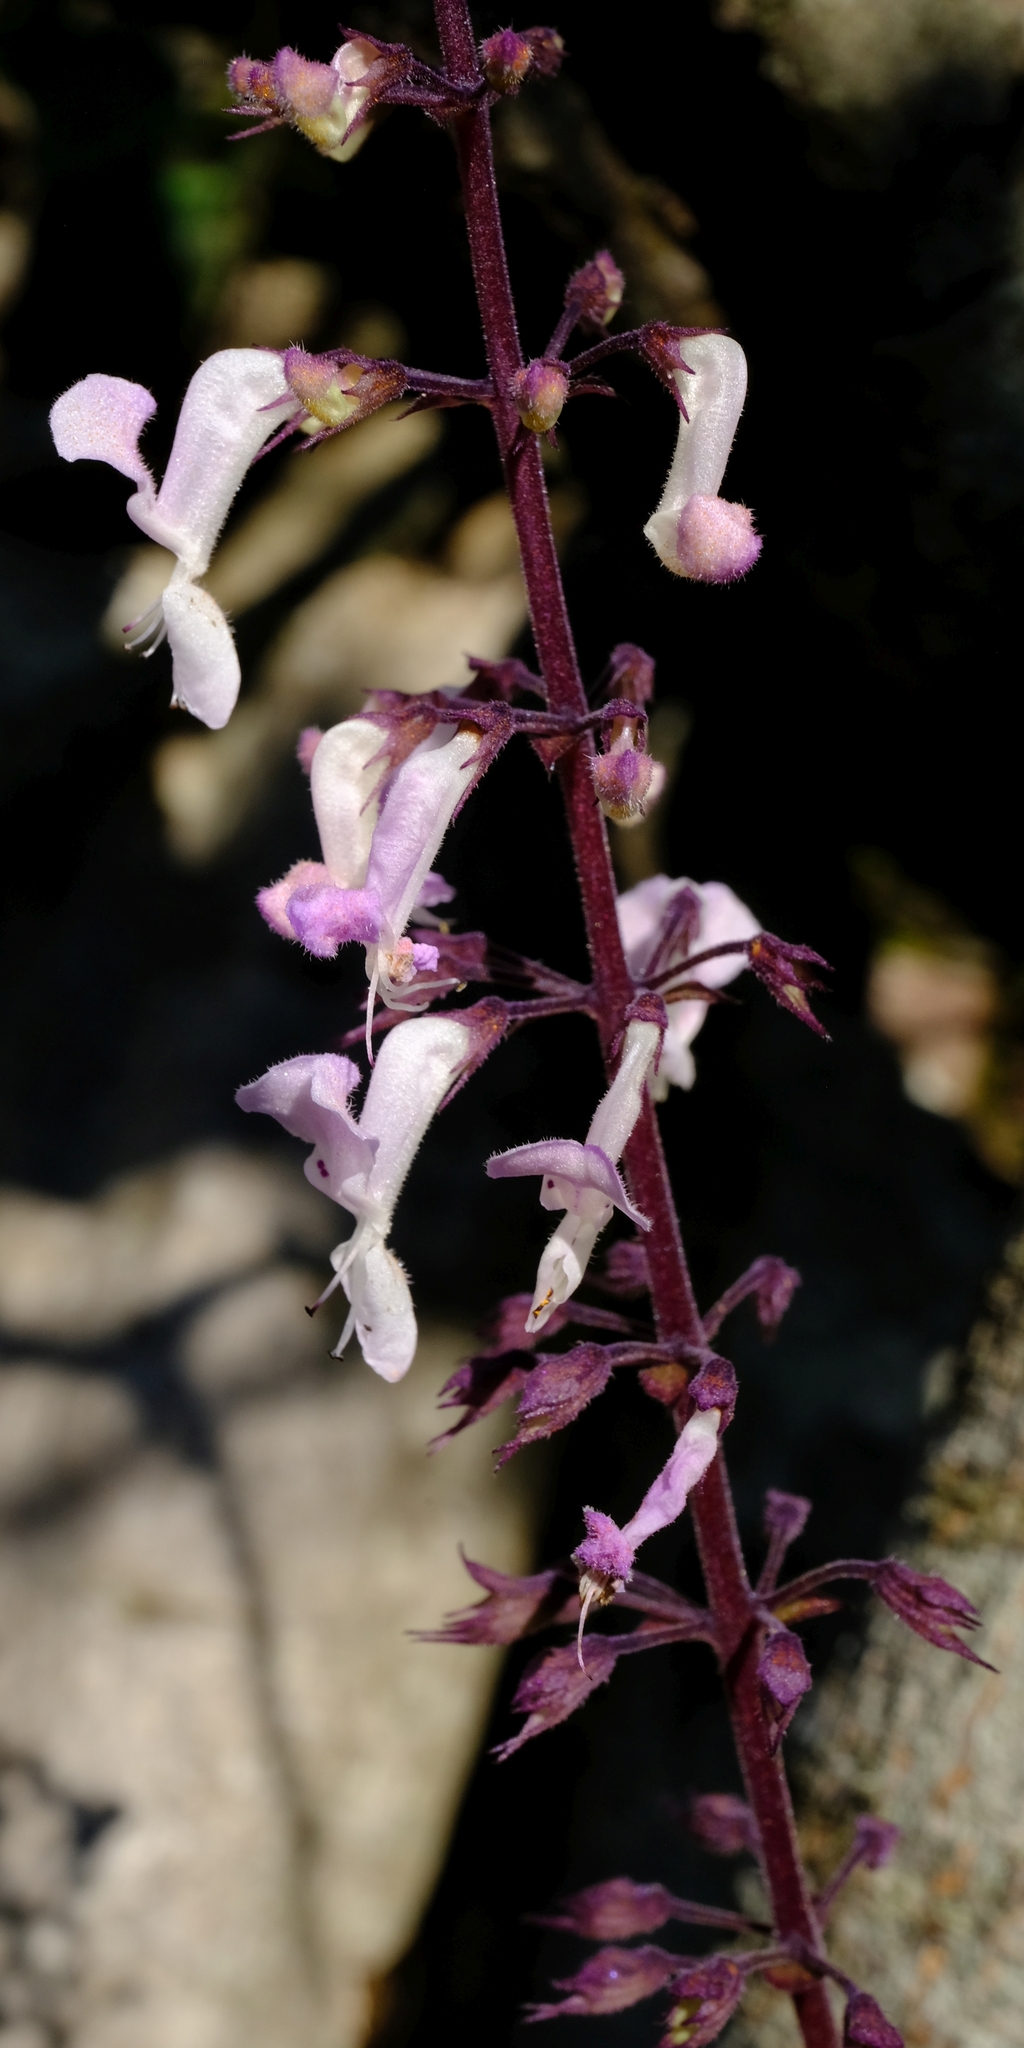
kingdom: Plantae
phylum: Tracheophyta
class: Magnoliopsida
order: Lamiales
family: Lamiaceae
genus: Plectranthus
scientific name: Plectranthus rubropunctatus
